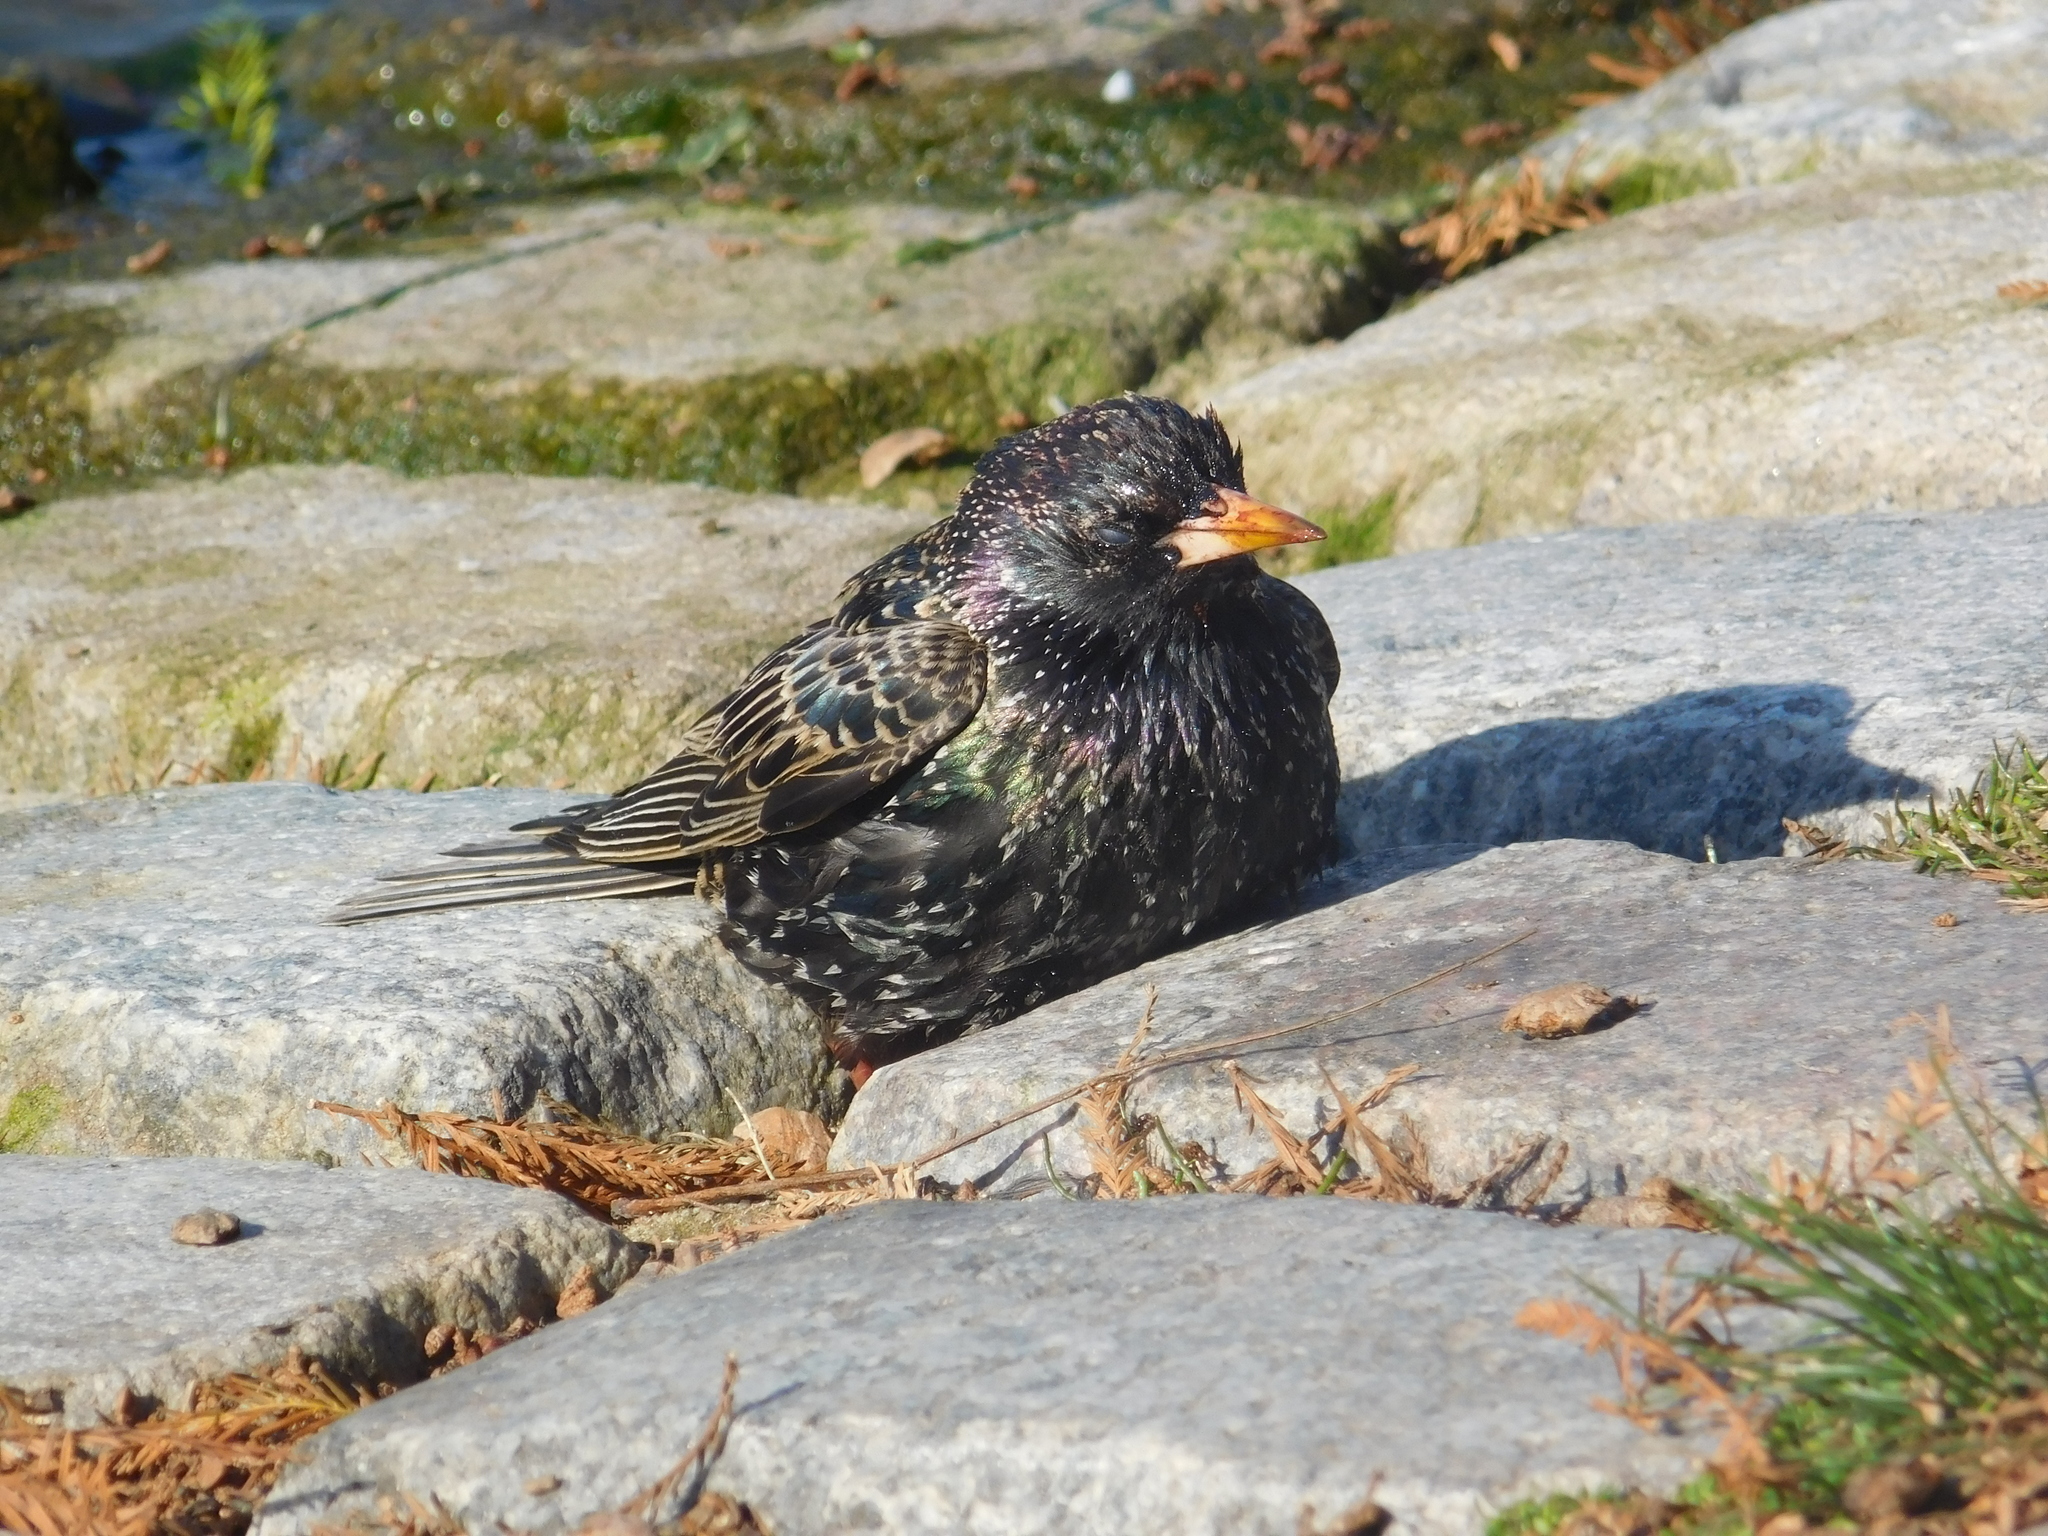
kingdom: Animalia
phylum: Chordata
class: Aves
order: Passeriformes
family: Sturnidae
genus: Sturnus
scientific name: Sturnus vulgaris
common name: Common starling
